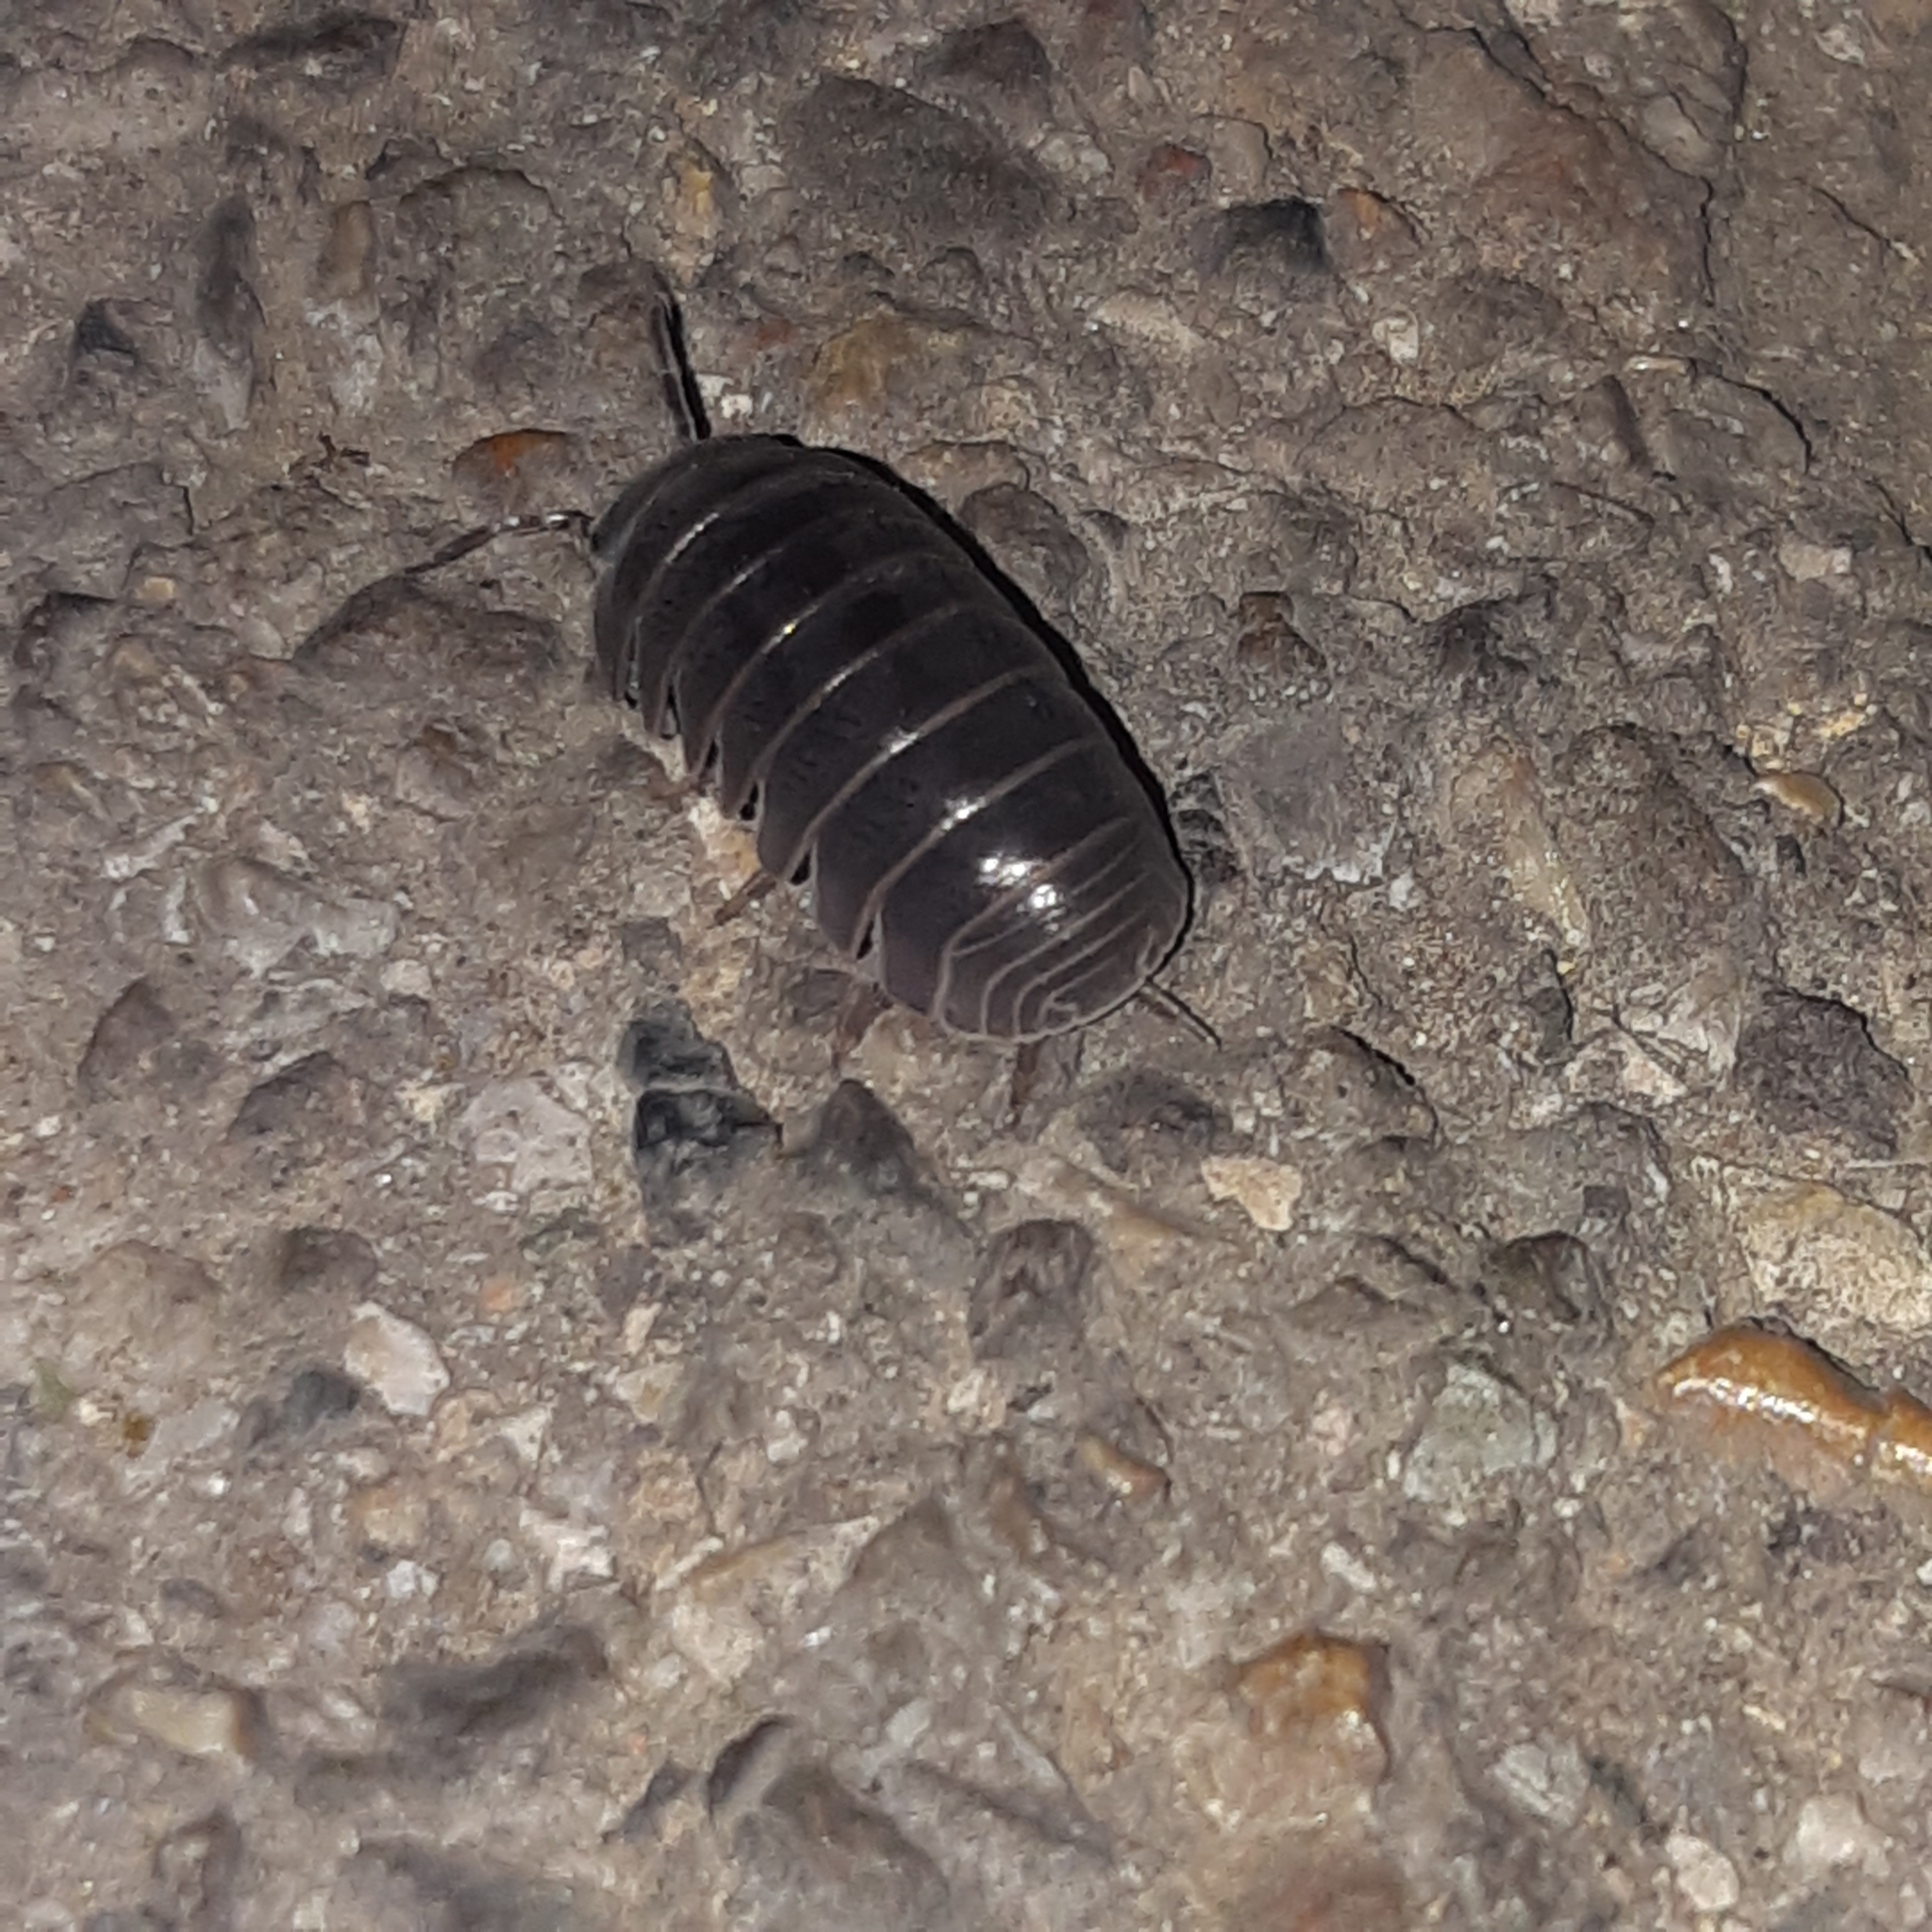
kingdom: Animalia
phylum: Arthropoda
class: Malacostraca
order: Isopoda
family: Armadillidae
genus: Armadillo
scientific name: Armadillo officinalis
